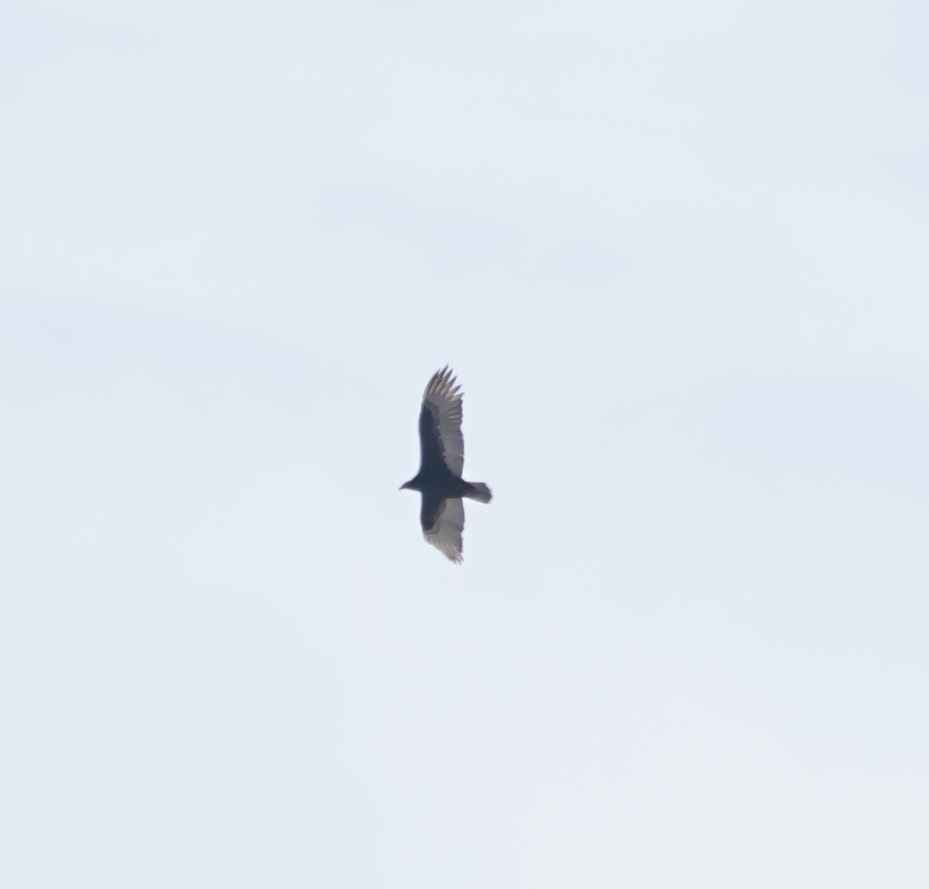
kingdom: Animalia
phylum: Chordata
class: Aves
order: Accipitriformes
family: Cathartidae
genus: Cathartes
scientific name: Cathartes aura
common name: Turkey vulture
